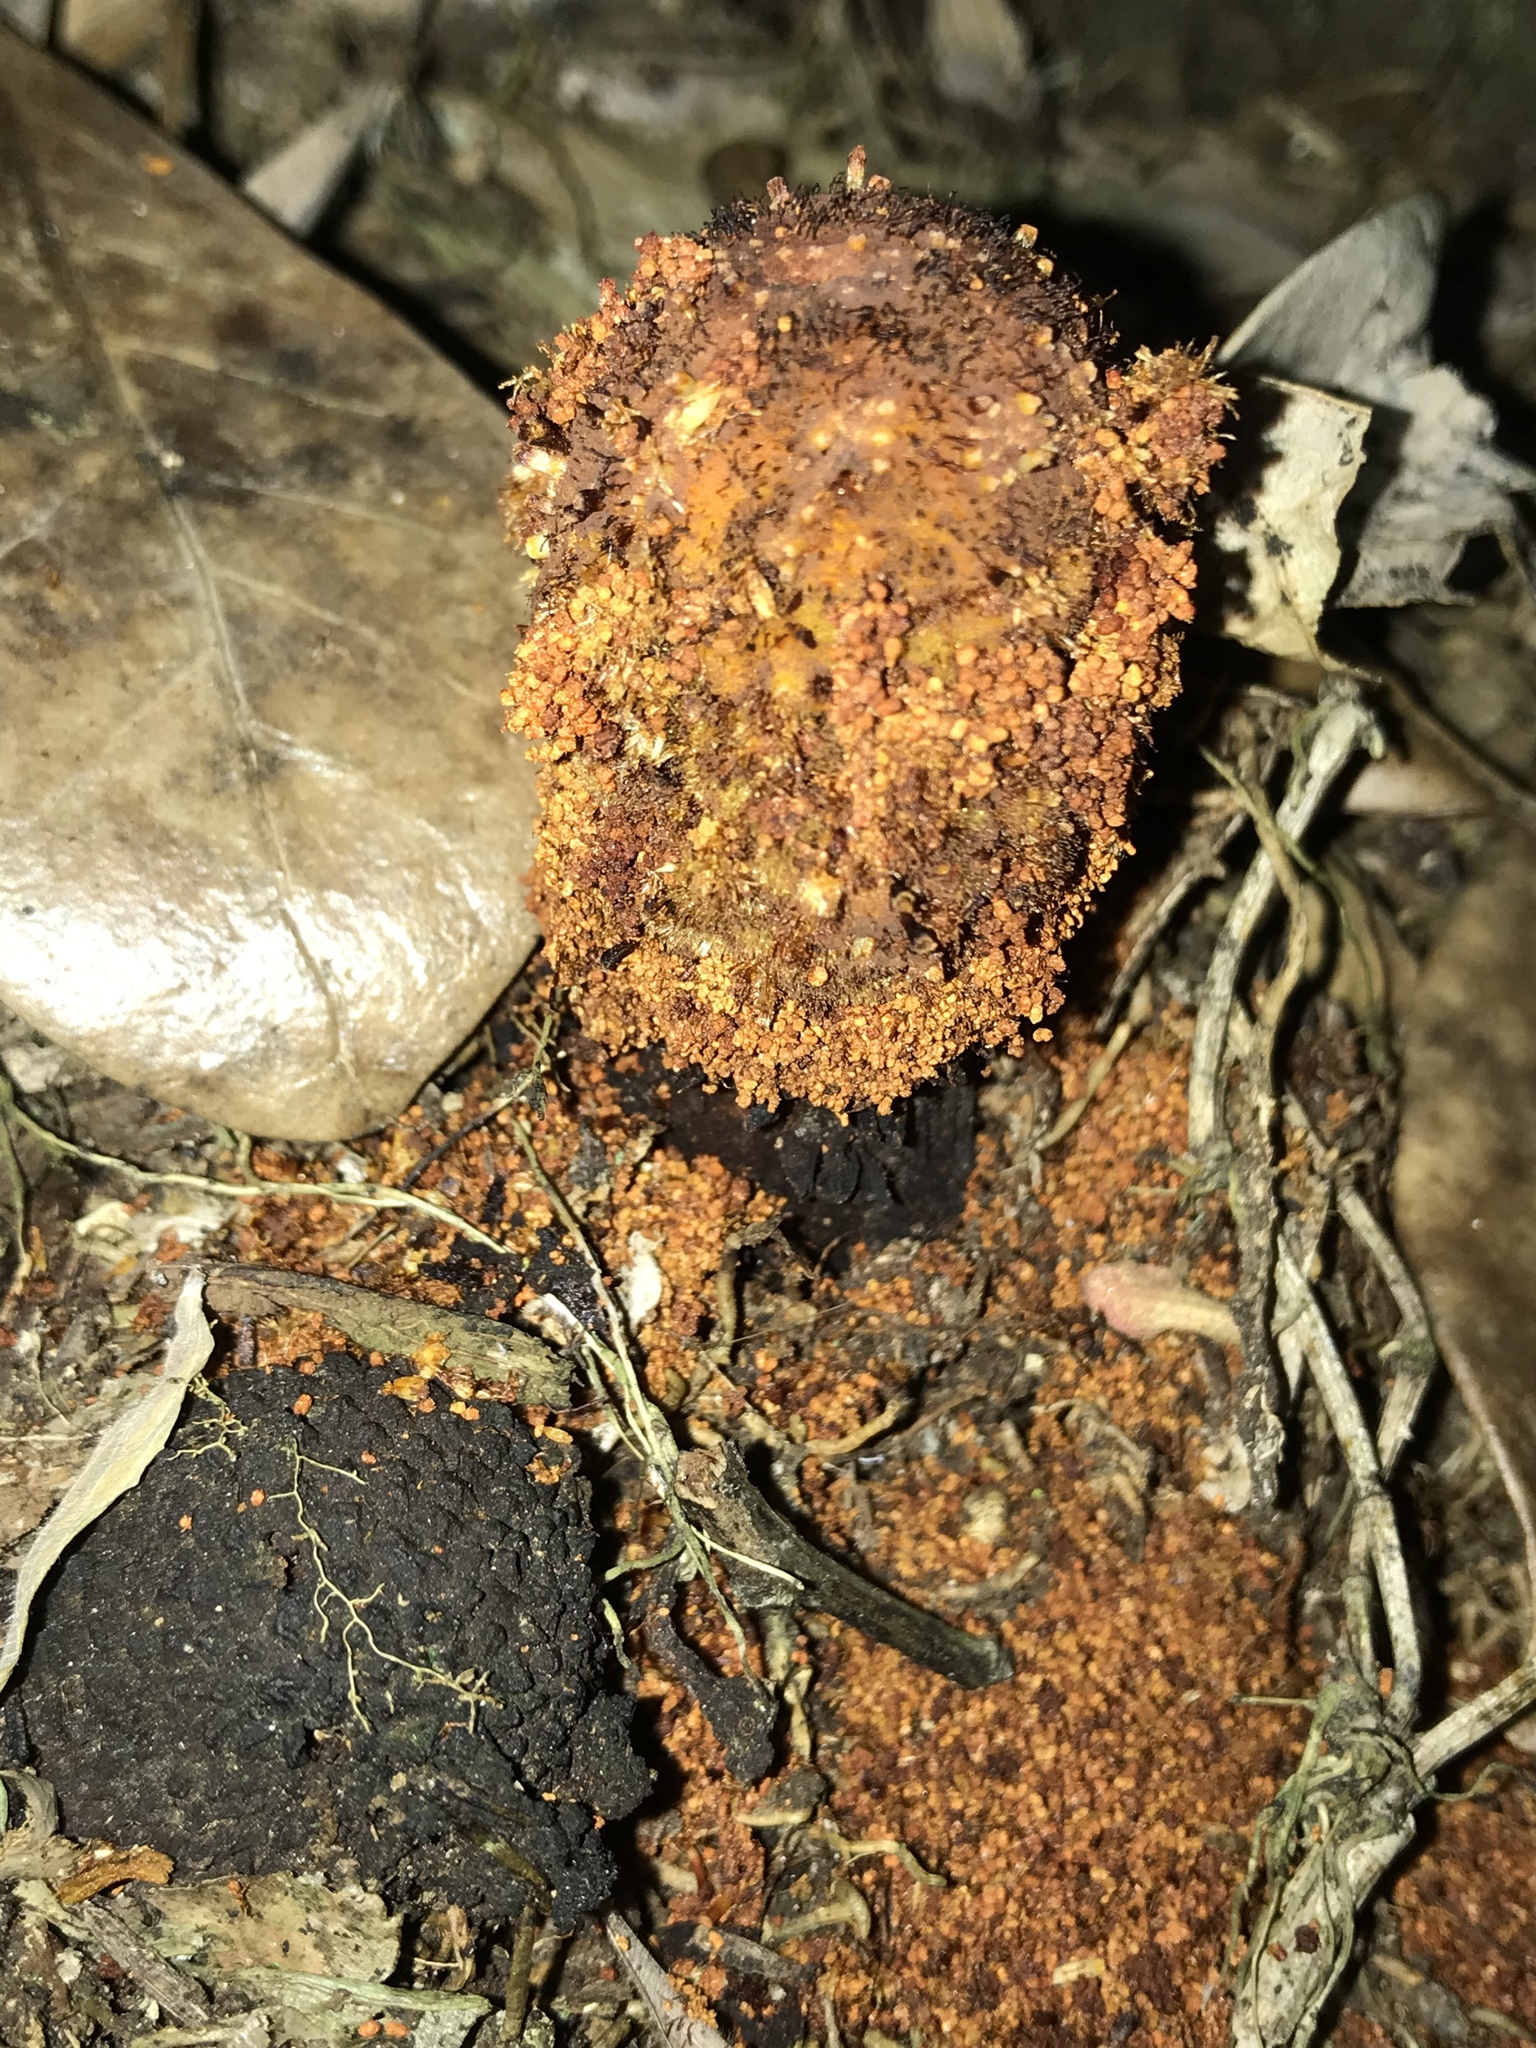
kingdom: Plantae
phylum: Tracheophyta
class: Magnoliopsida
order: Santalales
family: Balanophoraceae
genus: Corynaea
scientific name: Corynaea crassa
